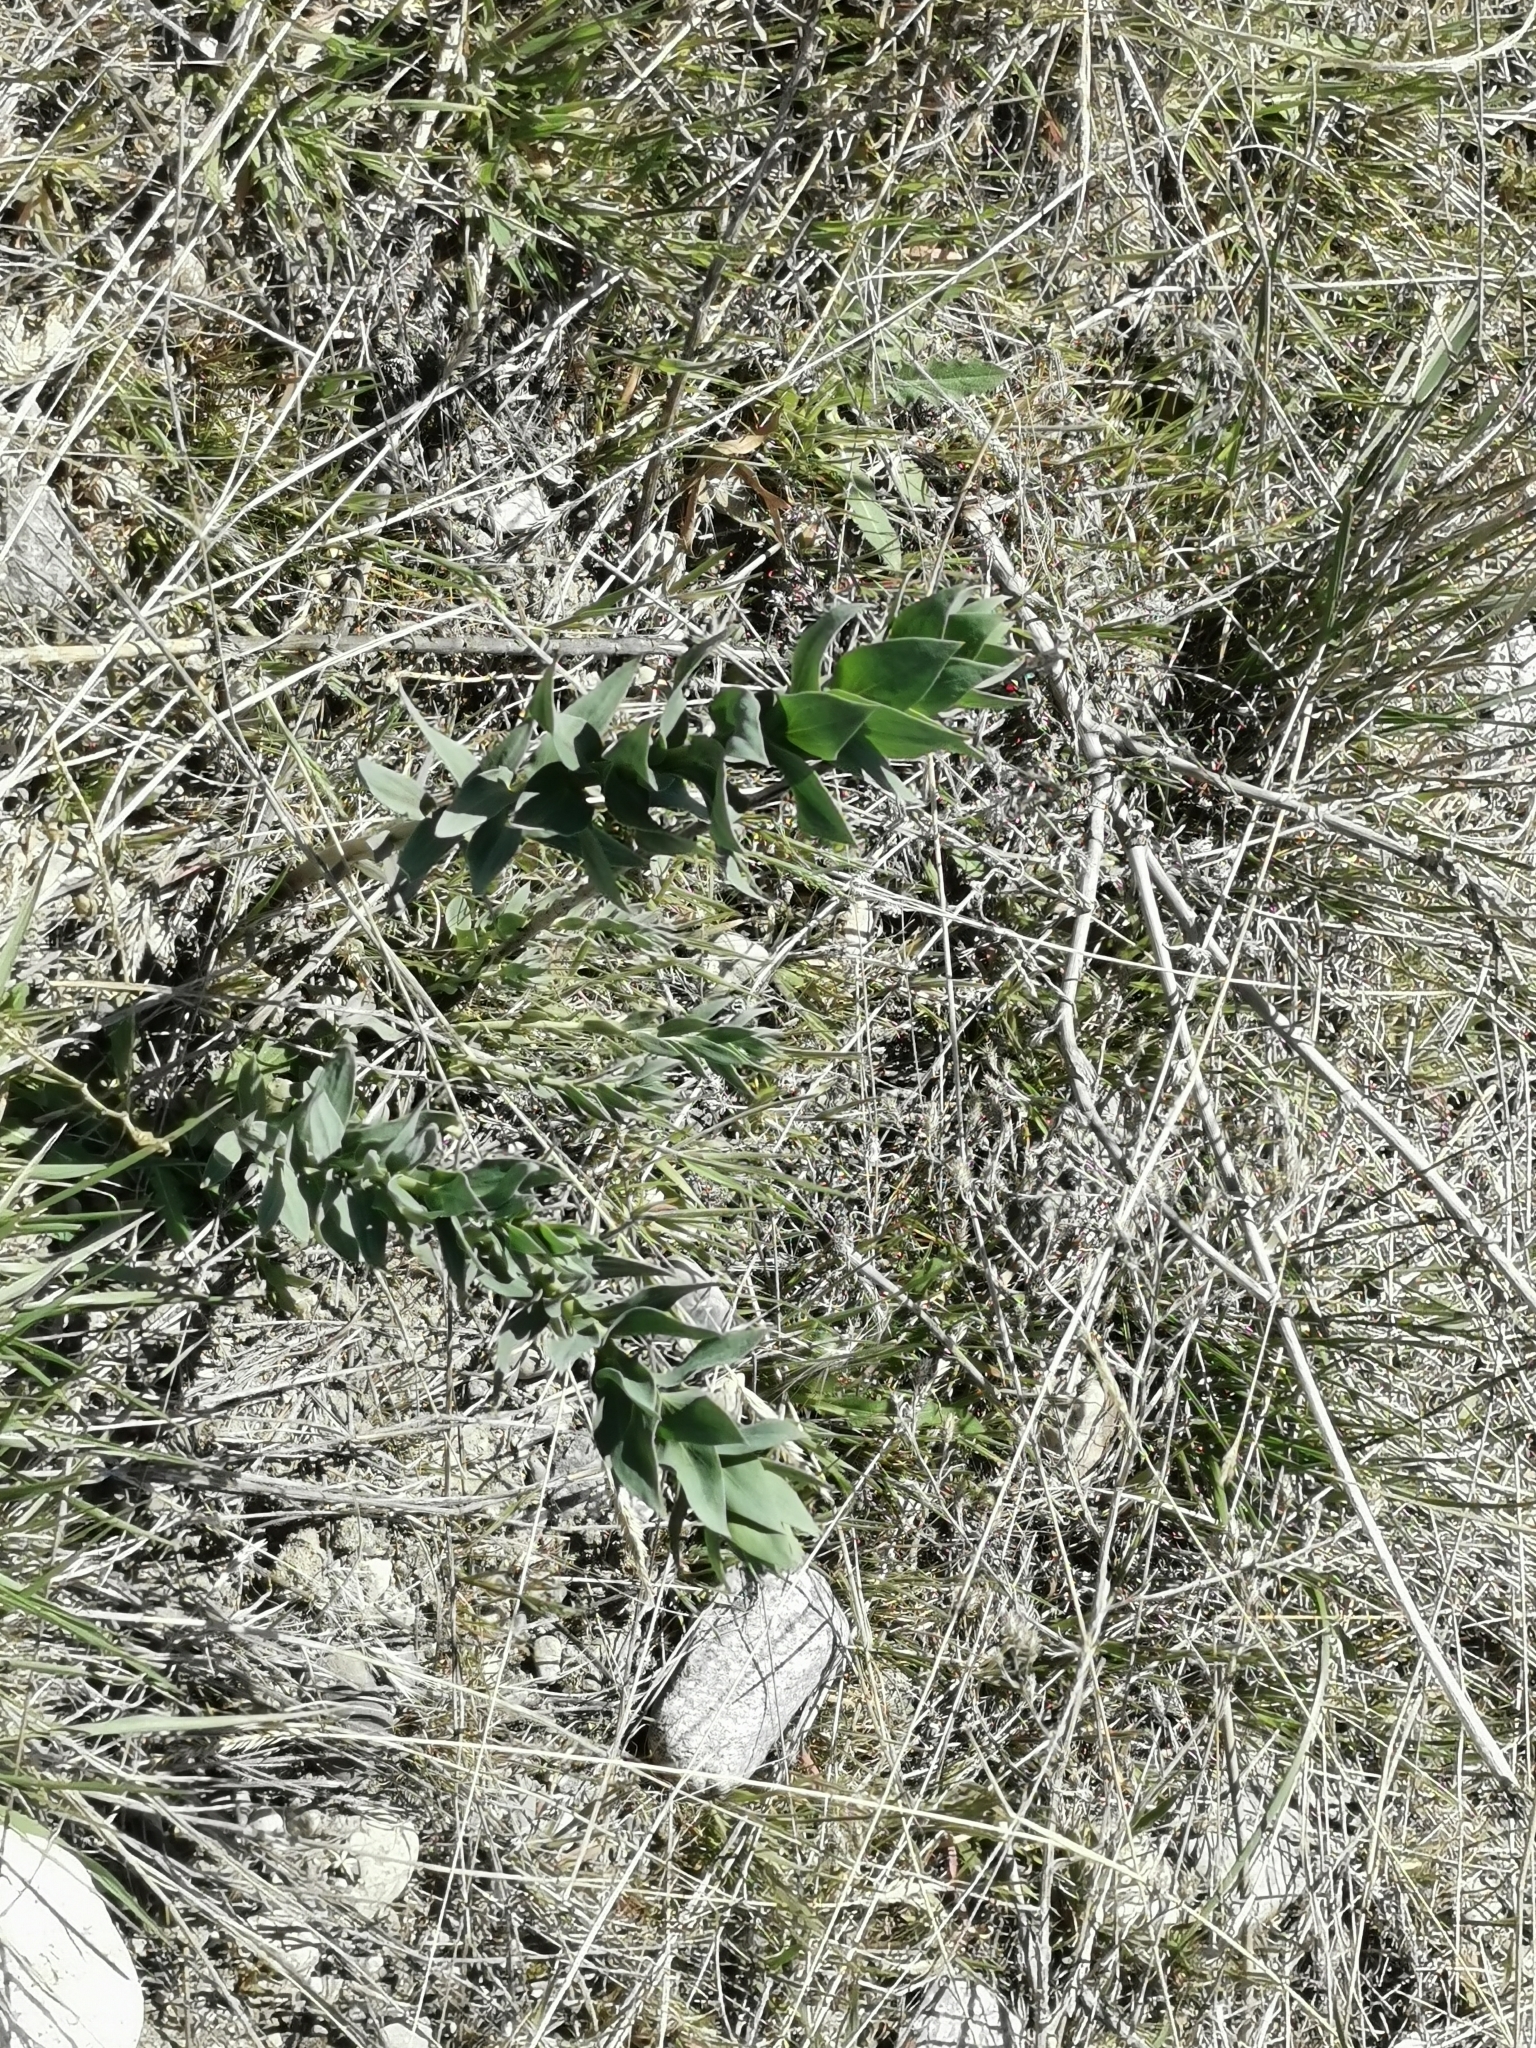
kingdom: Plantae
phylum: Tracheophyta
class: Magnoliopsida
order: Lamiales
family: Plantaginaceae
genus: Linaria
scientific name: Linaria dalmatica
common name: Dalmatian toadflax
